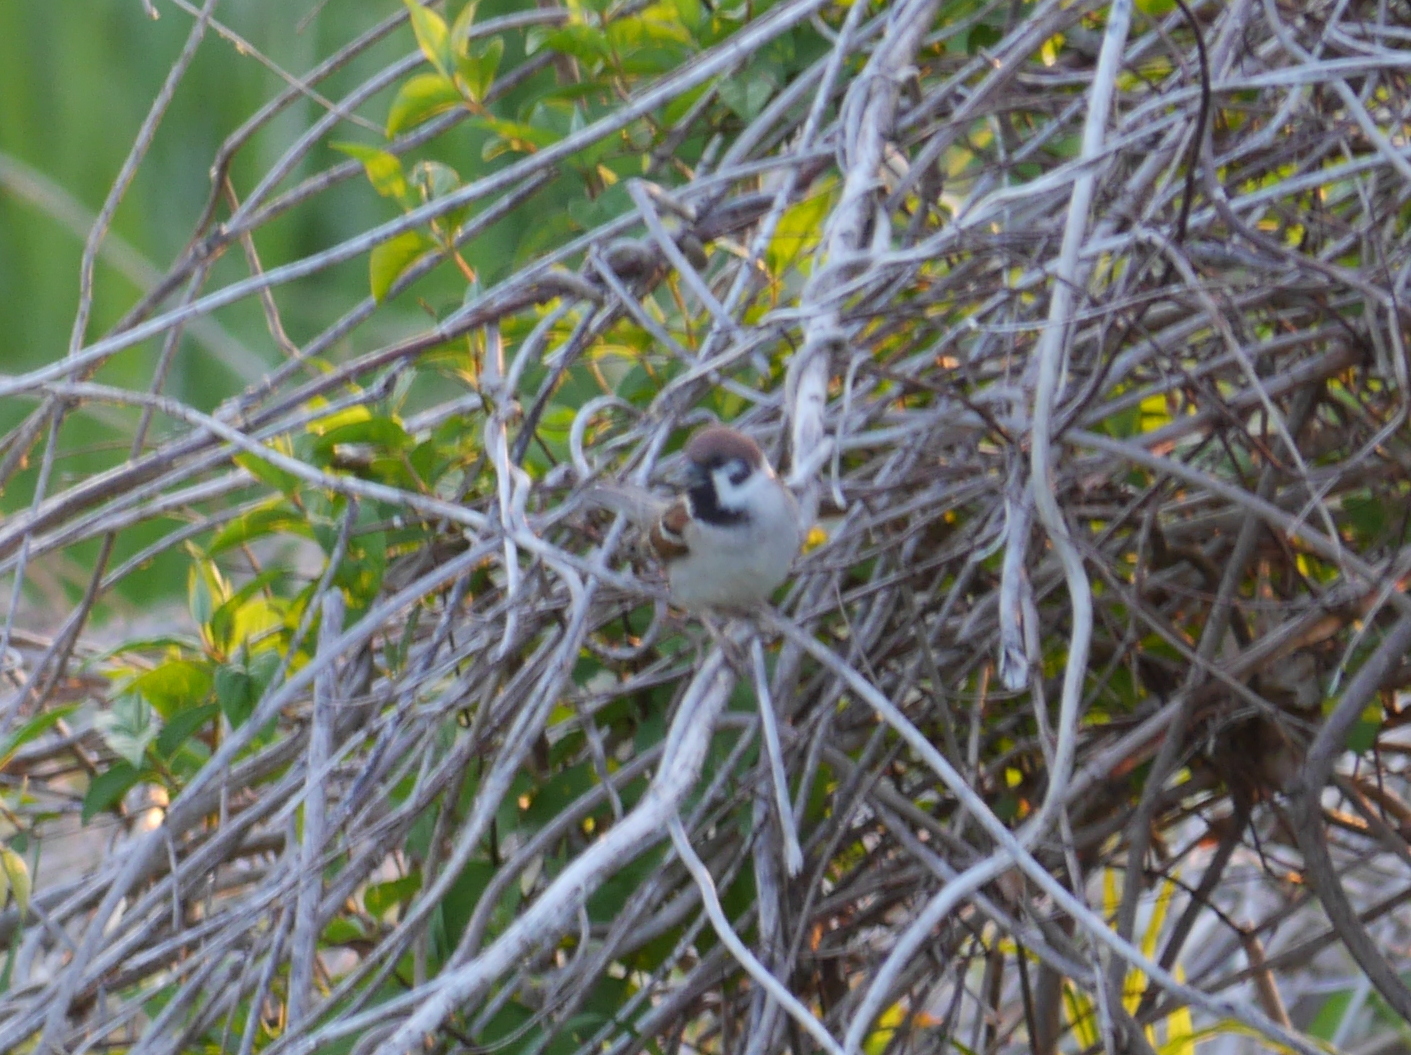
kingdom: Animalia
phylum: Chordata
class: Aves
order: Passeriformes
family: Passeridae
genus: Passer
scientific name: Passer montanus
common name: Eurasian tree sparrow
